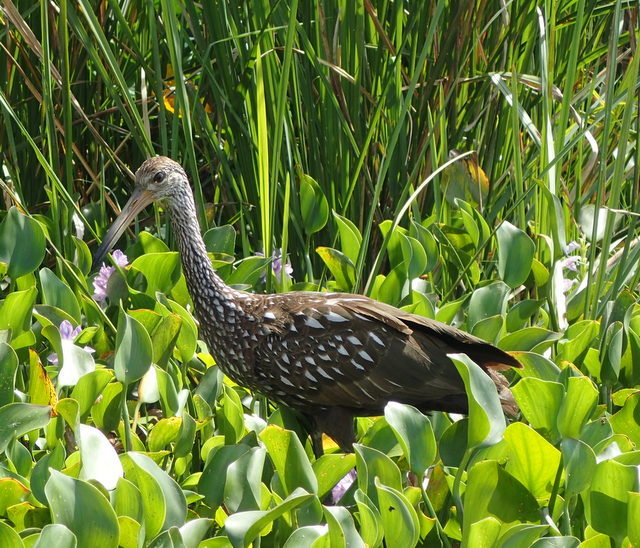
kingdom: Animalia
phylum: Chordata
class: Aves
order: Gruiformes
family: Aramidae
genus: Aramus
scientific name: Aramus guarauna
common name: Limpkin
